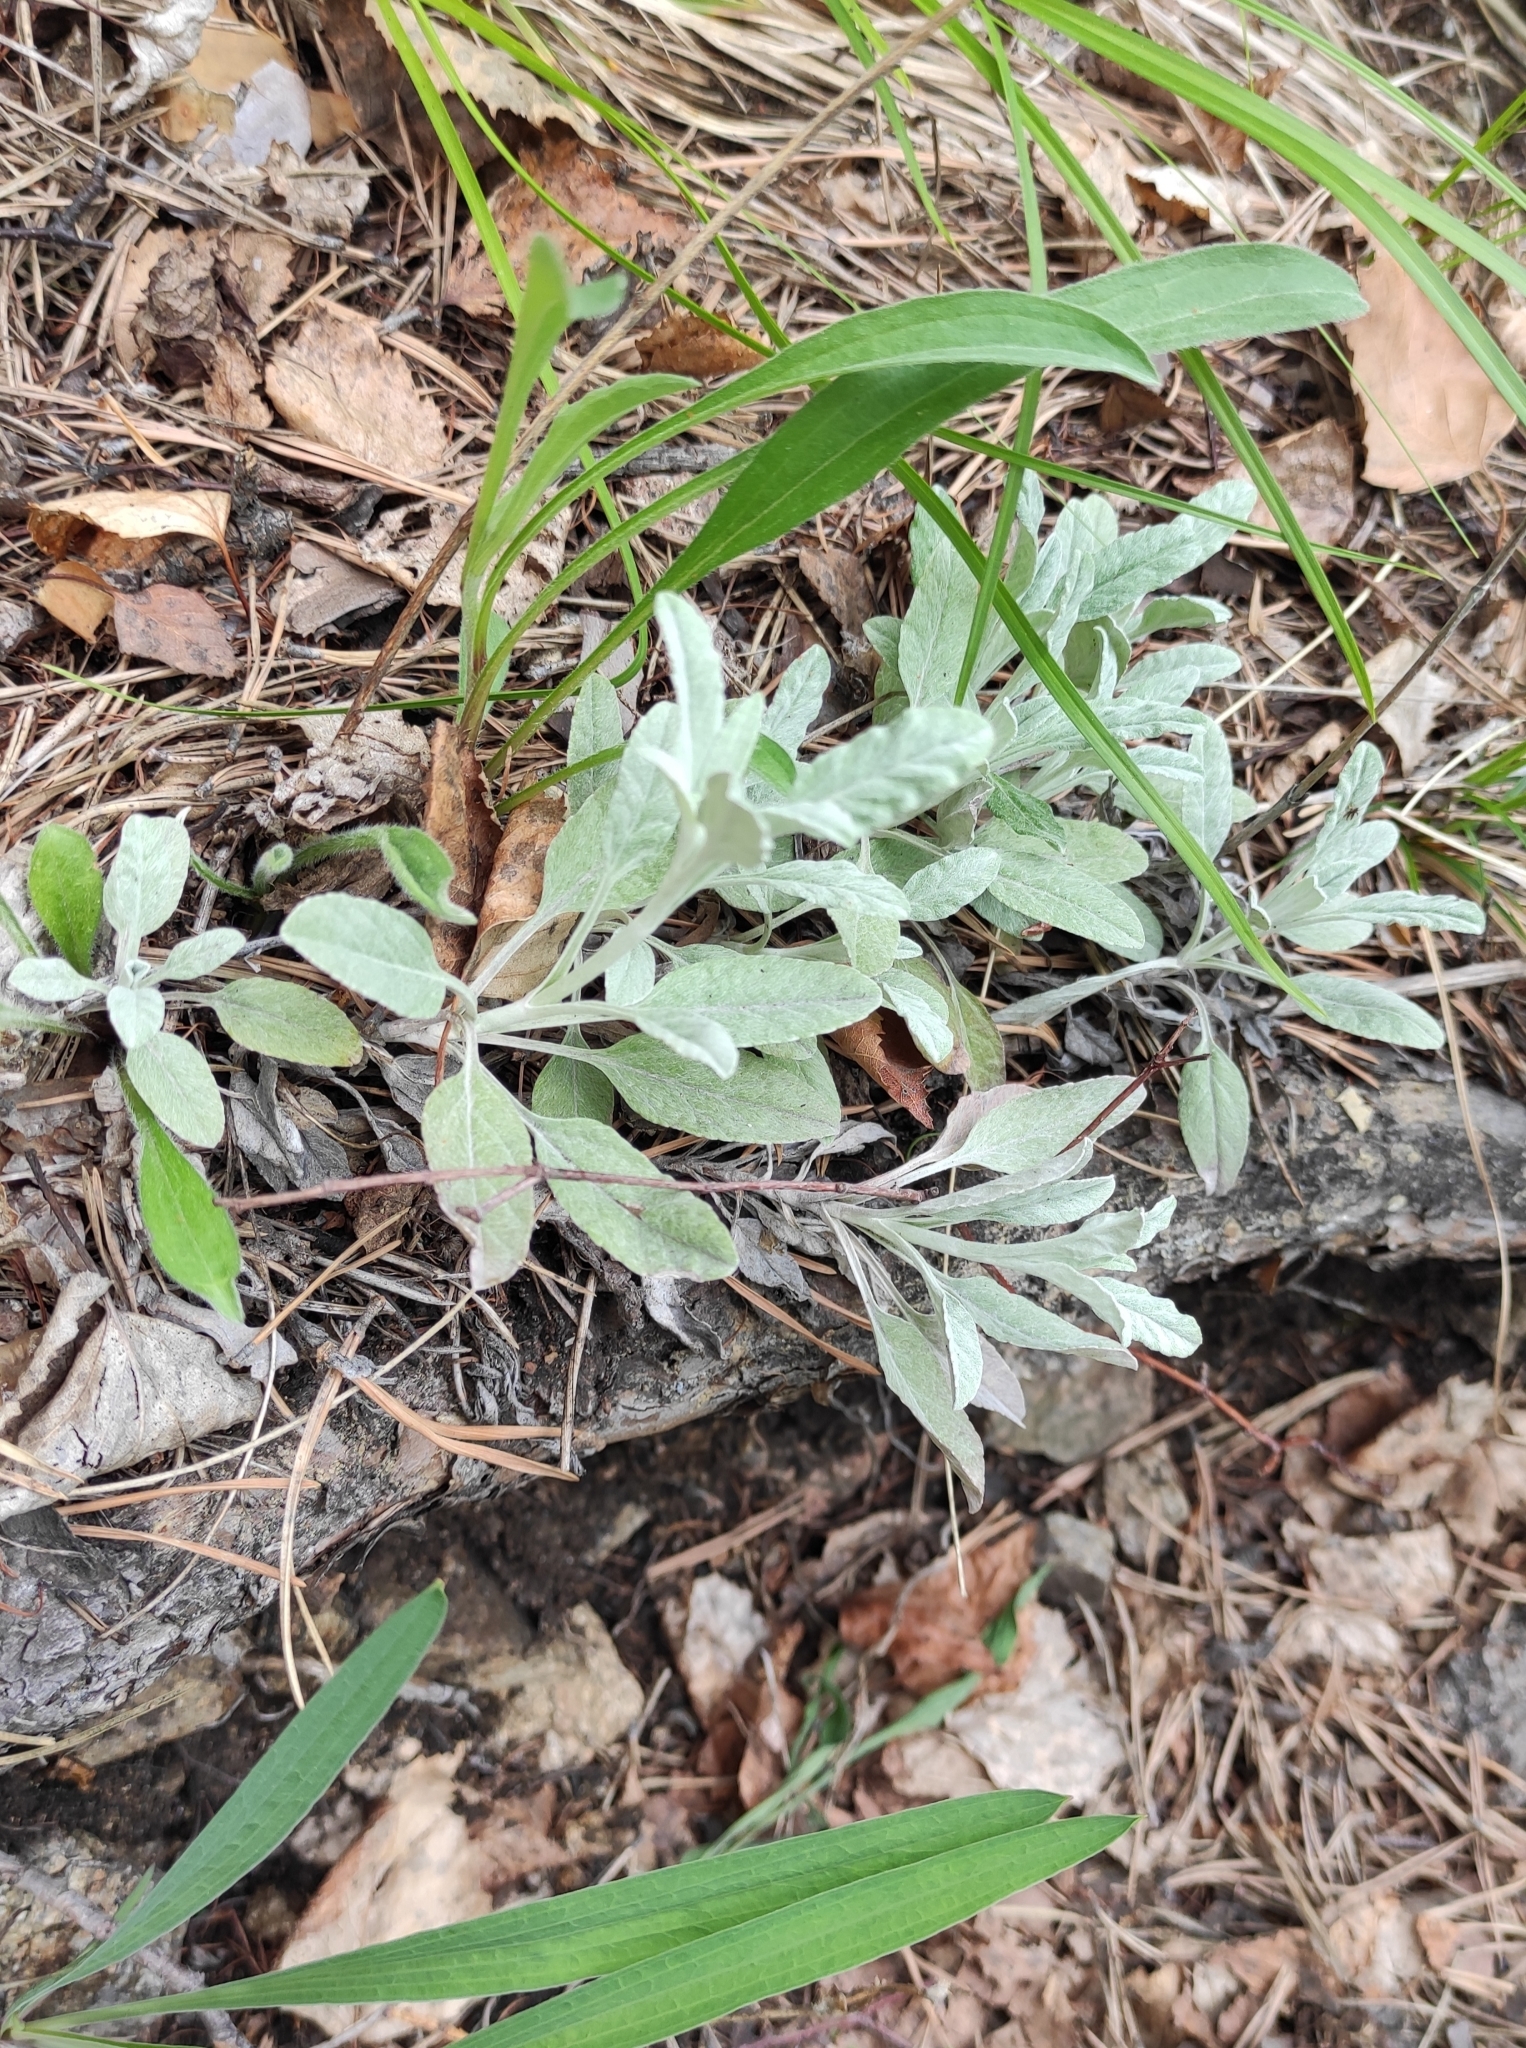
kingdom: Plantae
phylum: Tracheophyta
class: Magnoliopsida
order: Lamiales
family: Plantaginaceae
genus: Veronica
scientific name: Veronica incana
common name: Silver speedwell
